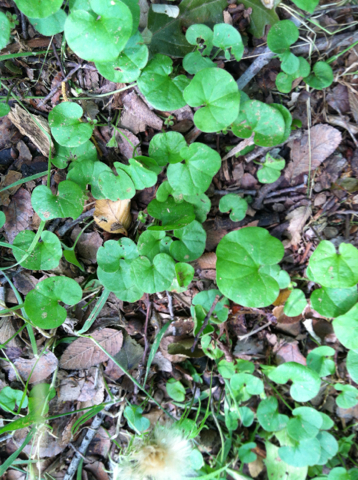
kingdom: Plantae
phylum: Tracheophyta
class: Magnoliopsida
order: Solanales
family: Convolvulaceae
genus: Dichondra
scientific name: Dichondra carolinensis
